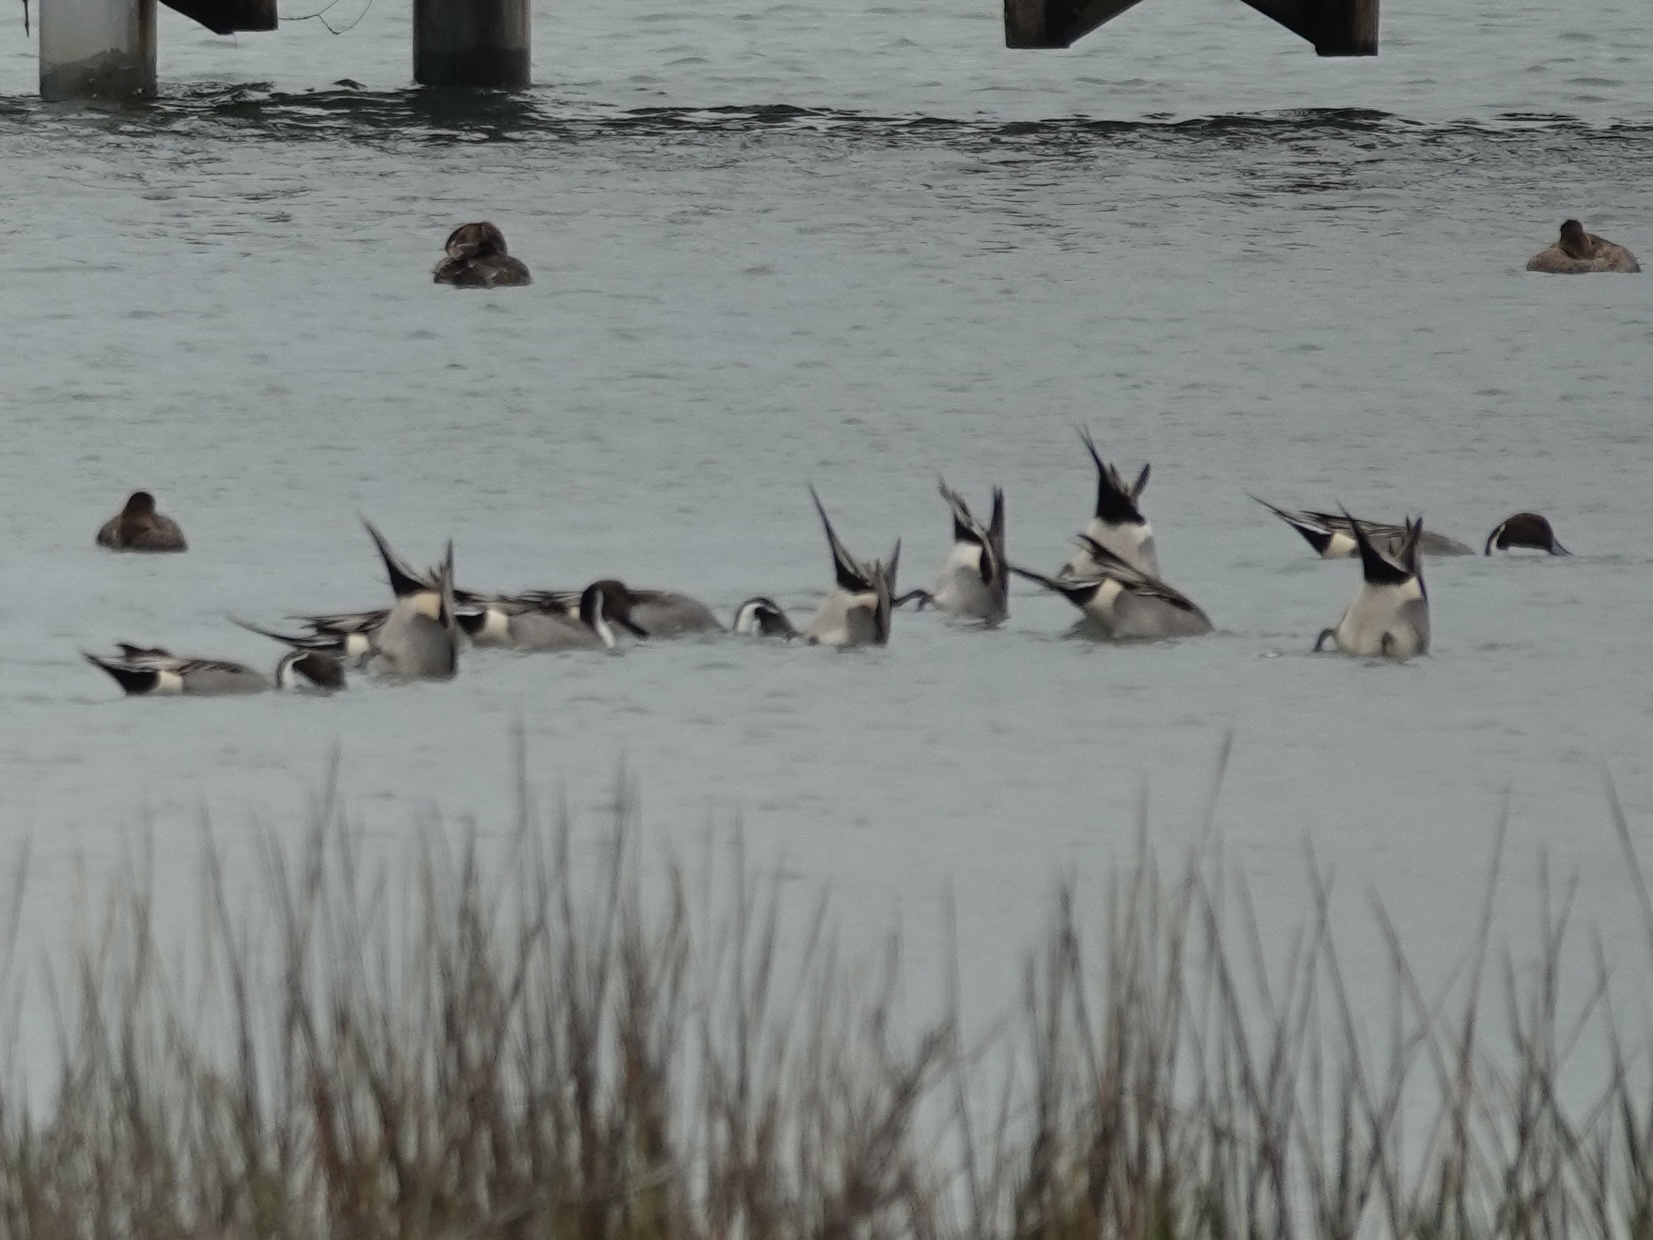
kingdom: Animalia
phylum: Chordata
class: Aves
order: Anseriformes
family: Anatidae
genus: Anas
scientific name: Anas acuta
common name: Northern pintail
